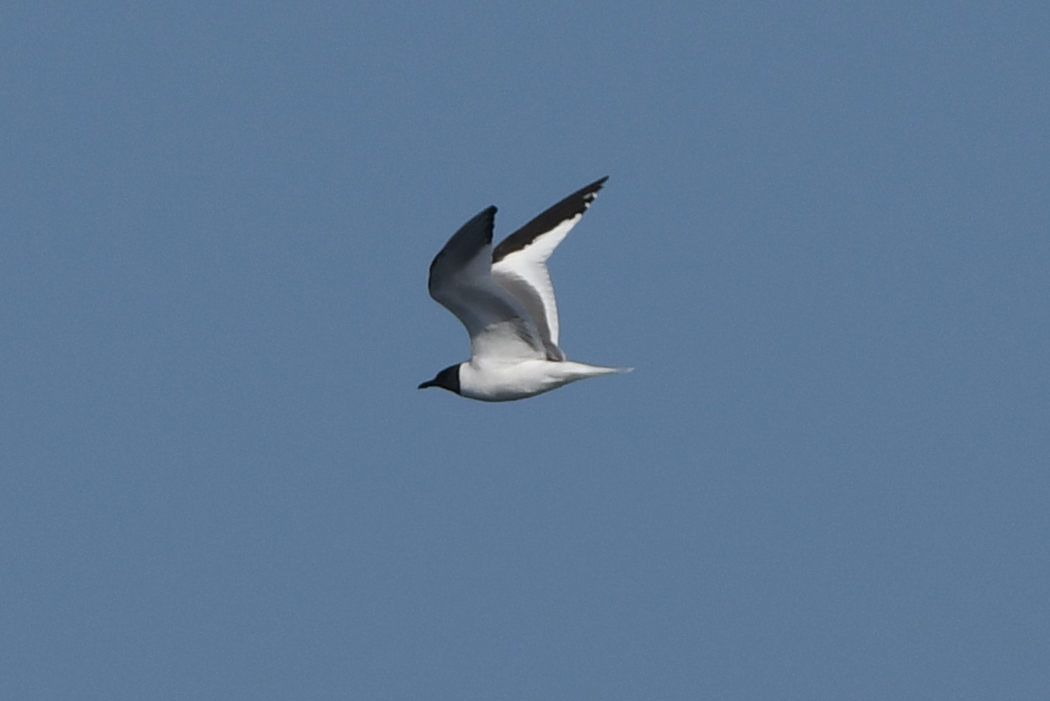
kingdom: Animalia
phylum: Chordata
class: Aves
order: Charadriiformes
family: Laridae
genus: Xema
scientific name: Xema sabini
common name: Sabine's gull
